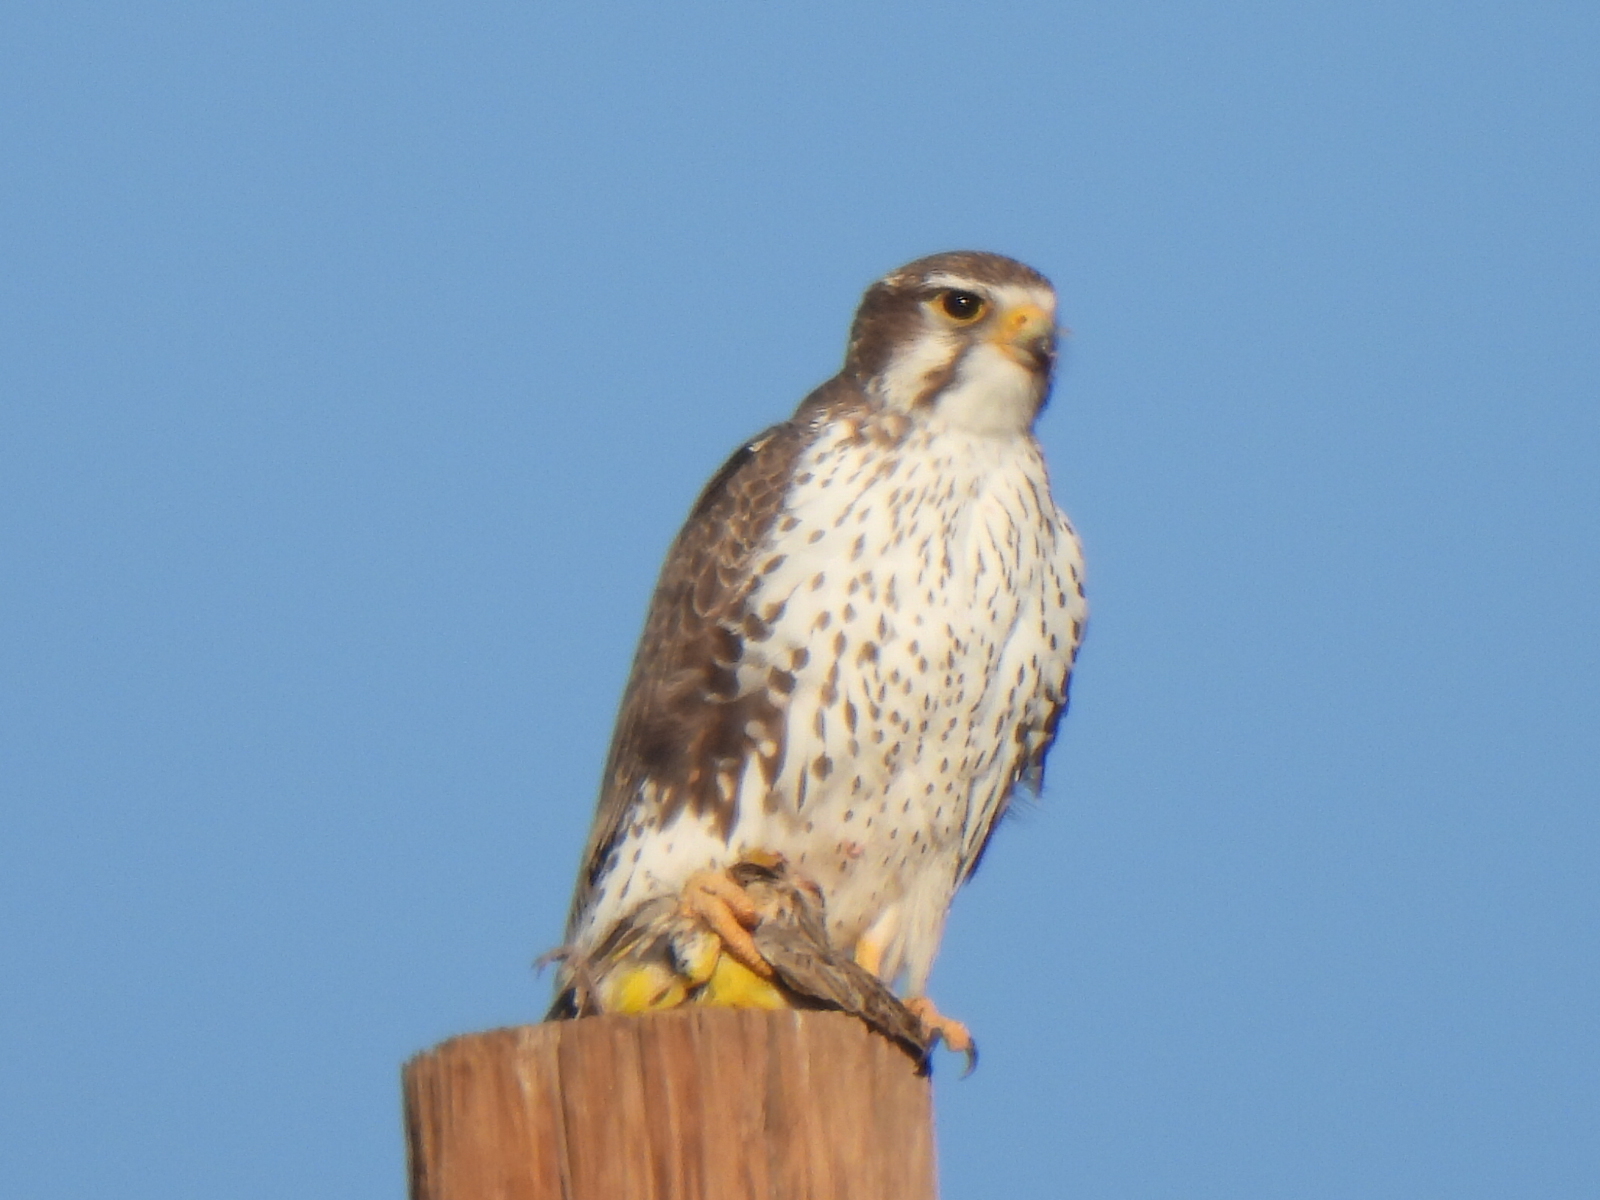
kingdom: Animalia
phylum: Chordata
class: Aves
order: Falconiformes
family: Falconidae
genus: Falco
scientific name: Falco mexicanus
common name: Prairie falcon
